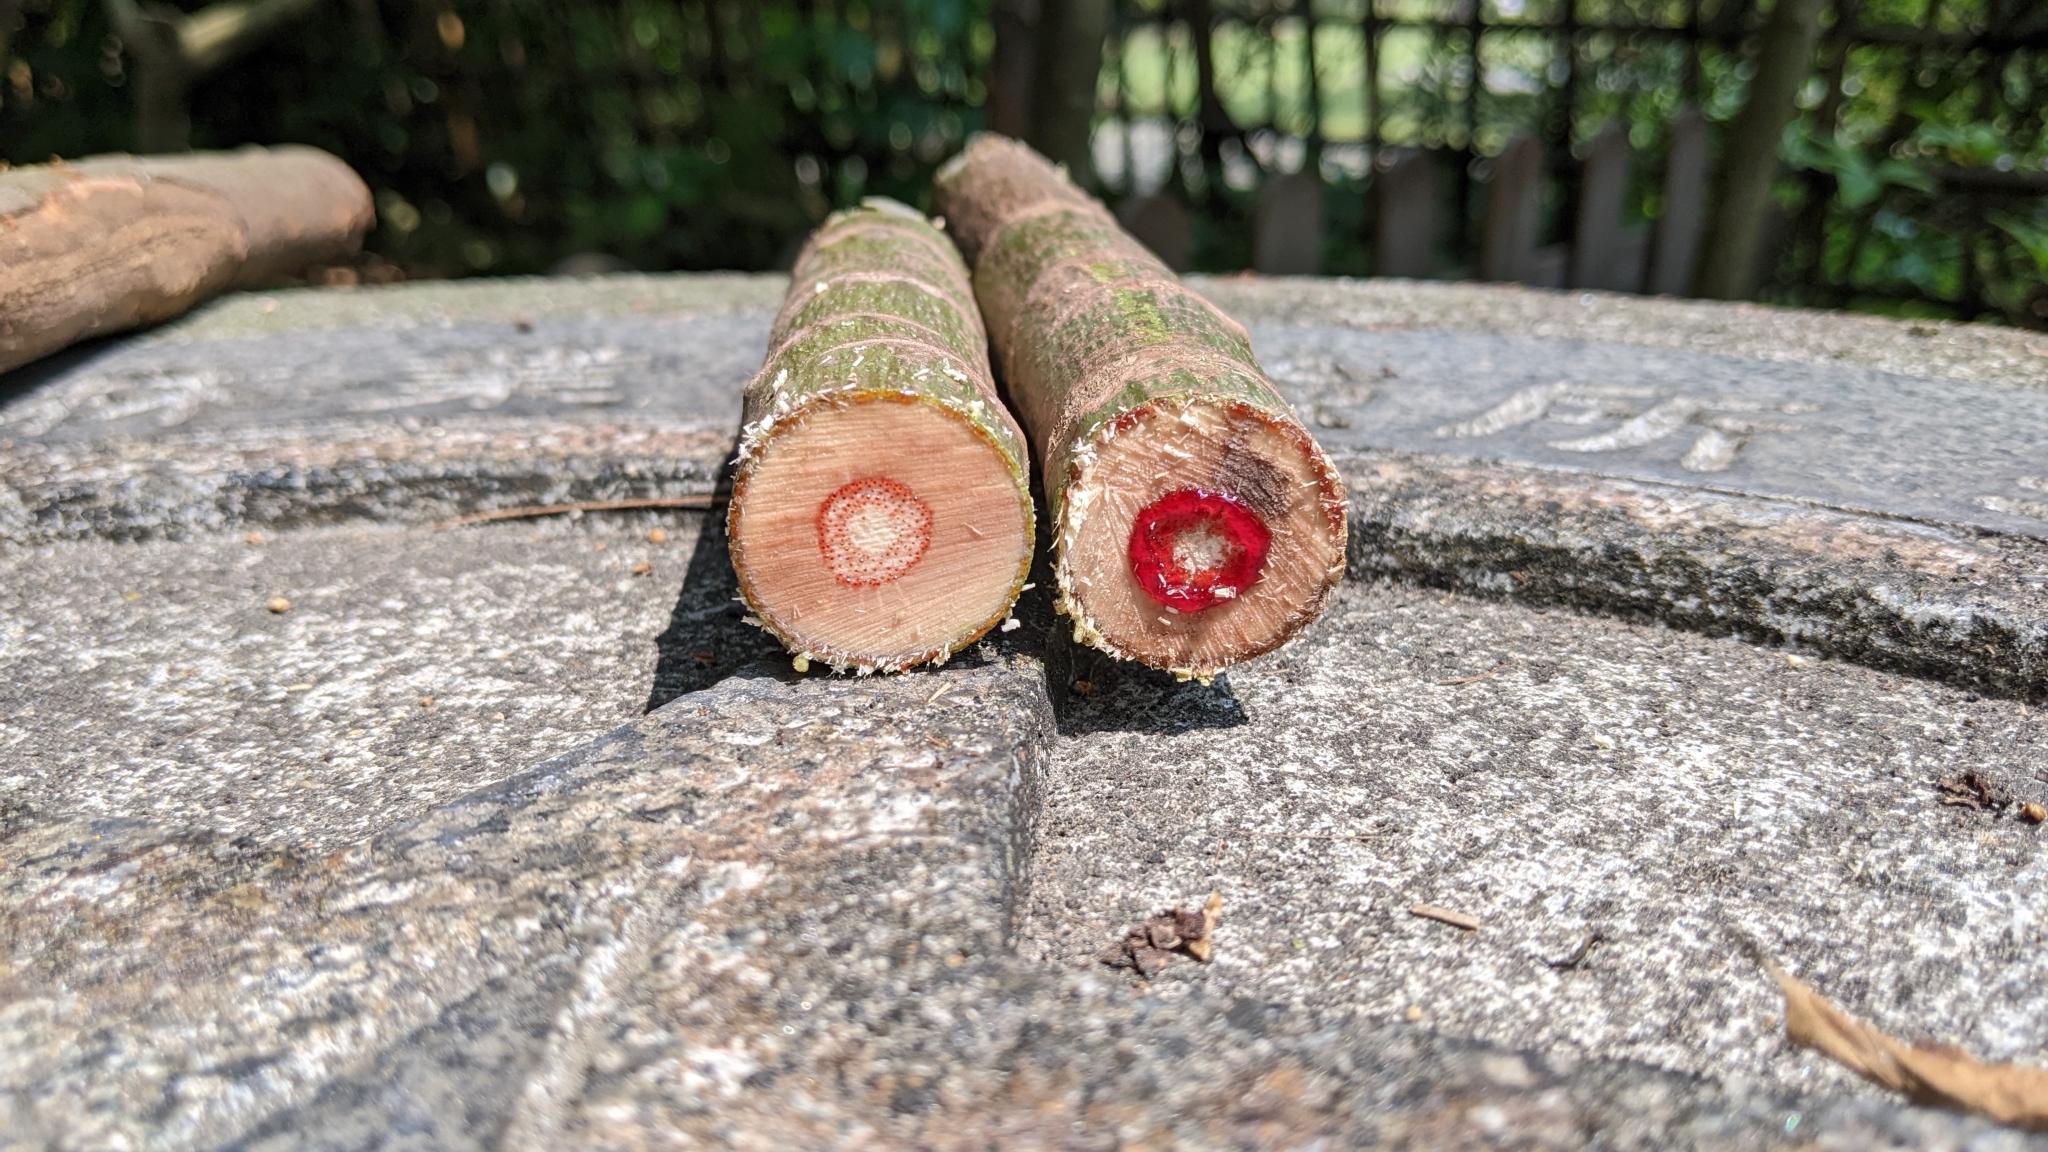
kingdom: Plantae
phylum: Tracheophyta
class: Magnoliopsida
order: Malpighiales
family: Euphorbiaceae
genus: Macaranga
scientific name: Macaranga tanarius
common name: Parasol leaf tree
